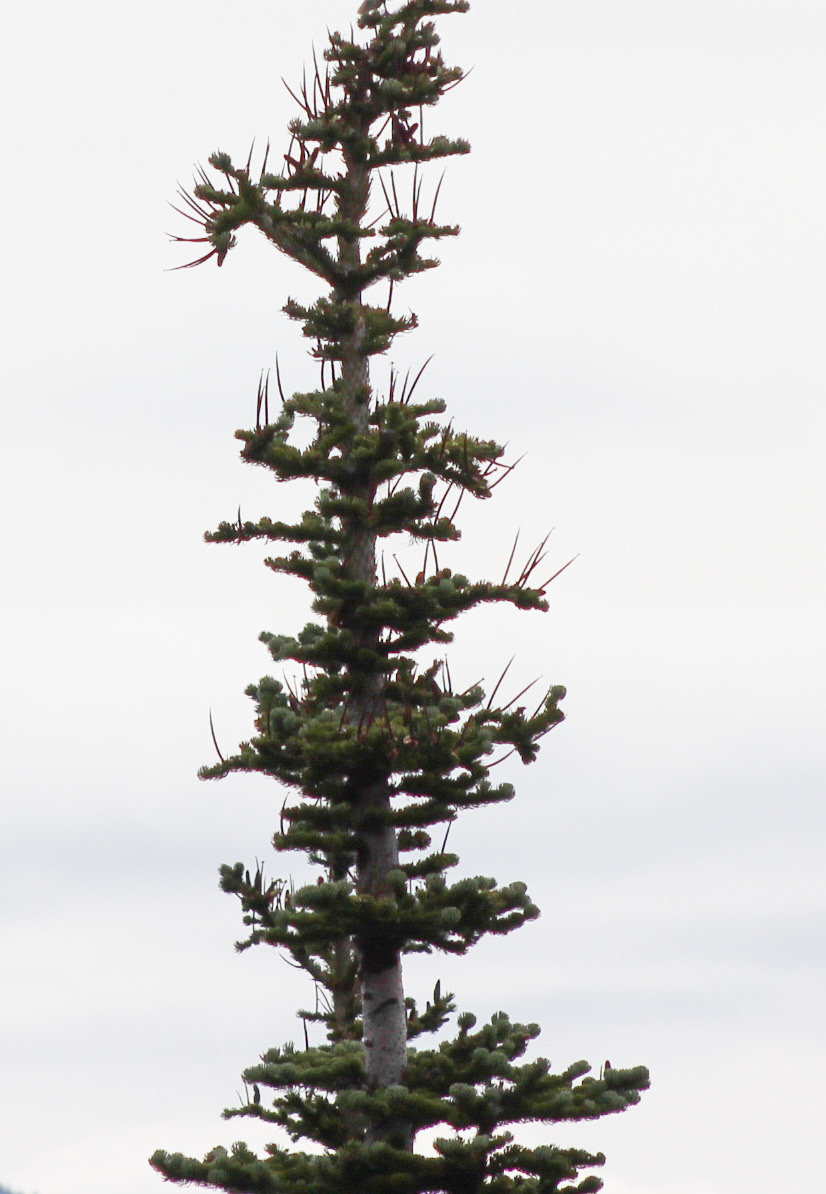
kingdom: Plantae
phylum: Tracheophyta
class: Pinopsida
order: Pinales
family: Pinaceae
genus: Abies
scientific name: Abies lasiocarpa
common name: Subalpine fir
